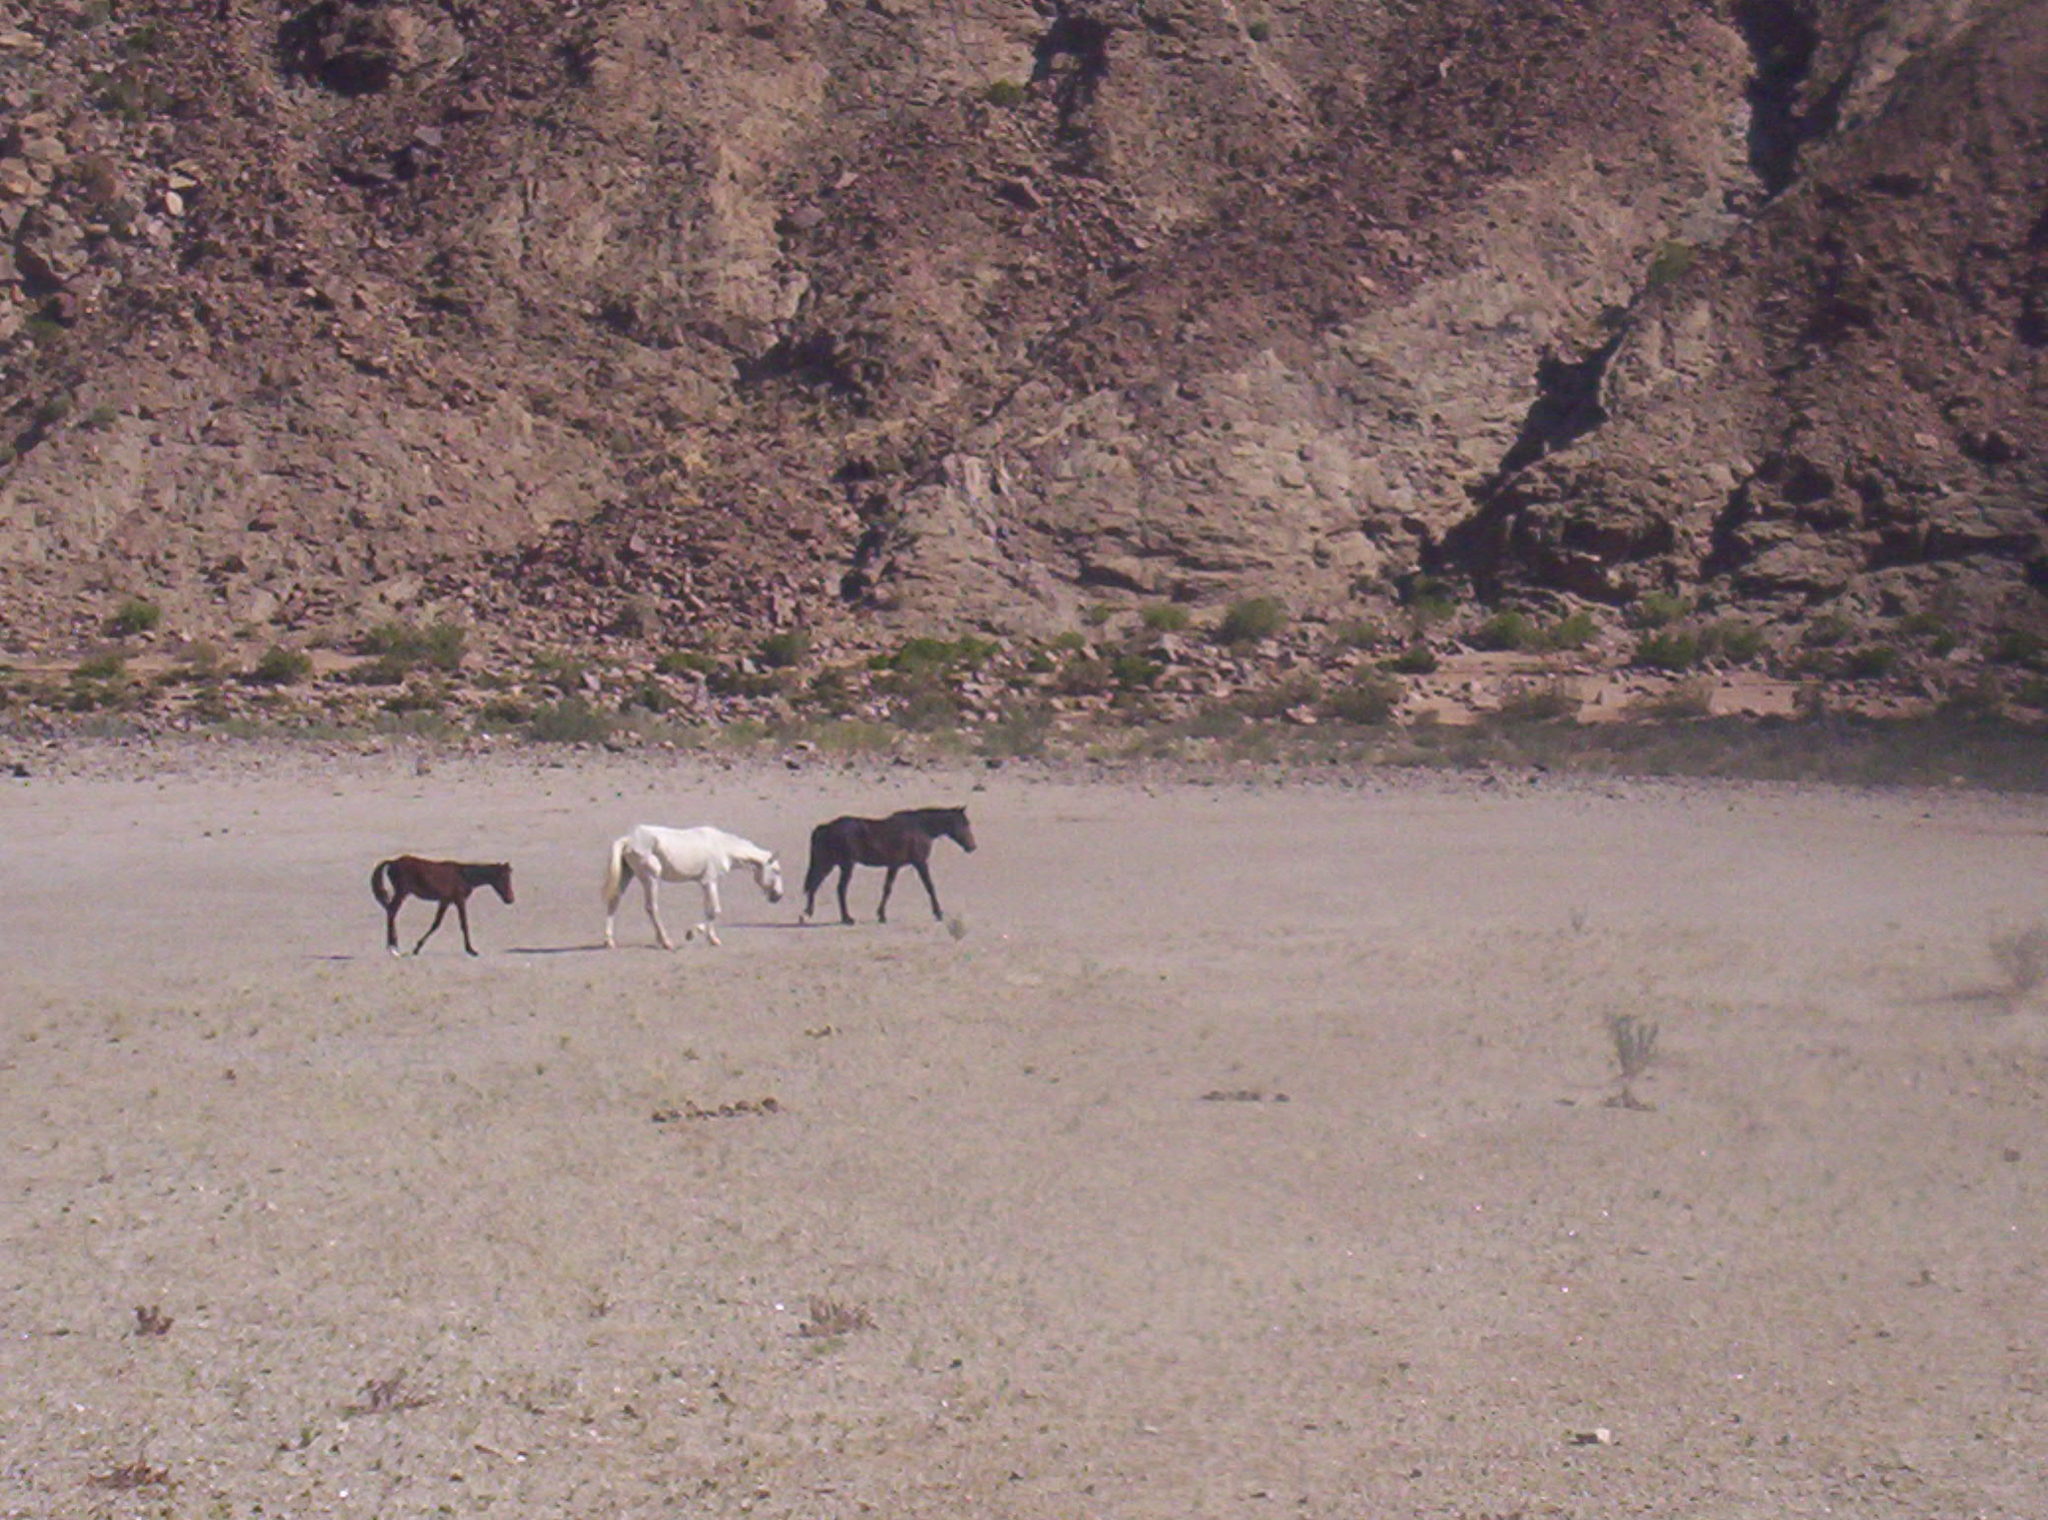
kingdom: Animalia
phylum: Chordata
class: Mammalia
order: Perissodactyla
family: Equidae
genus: Equus
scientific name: Equus caballus
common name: Horse
